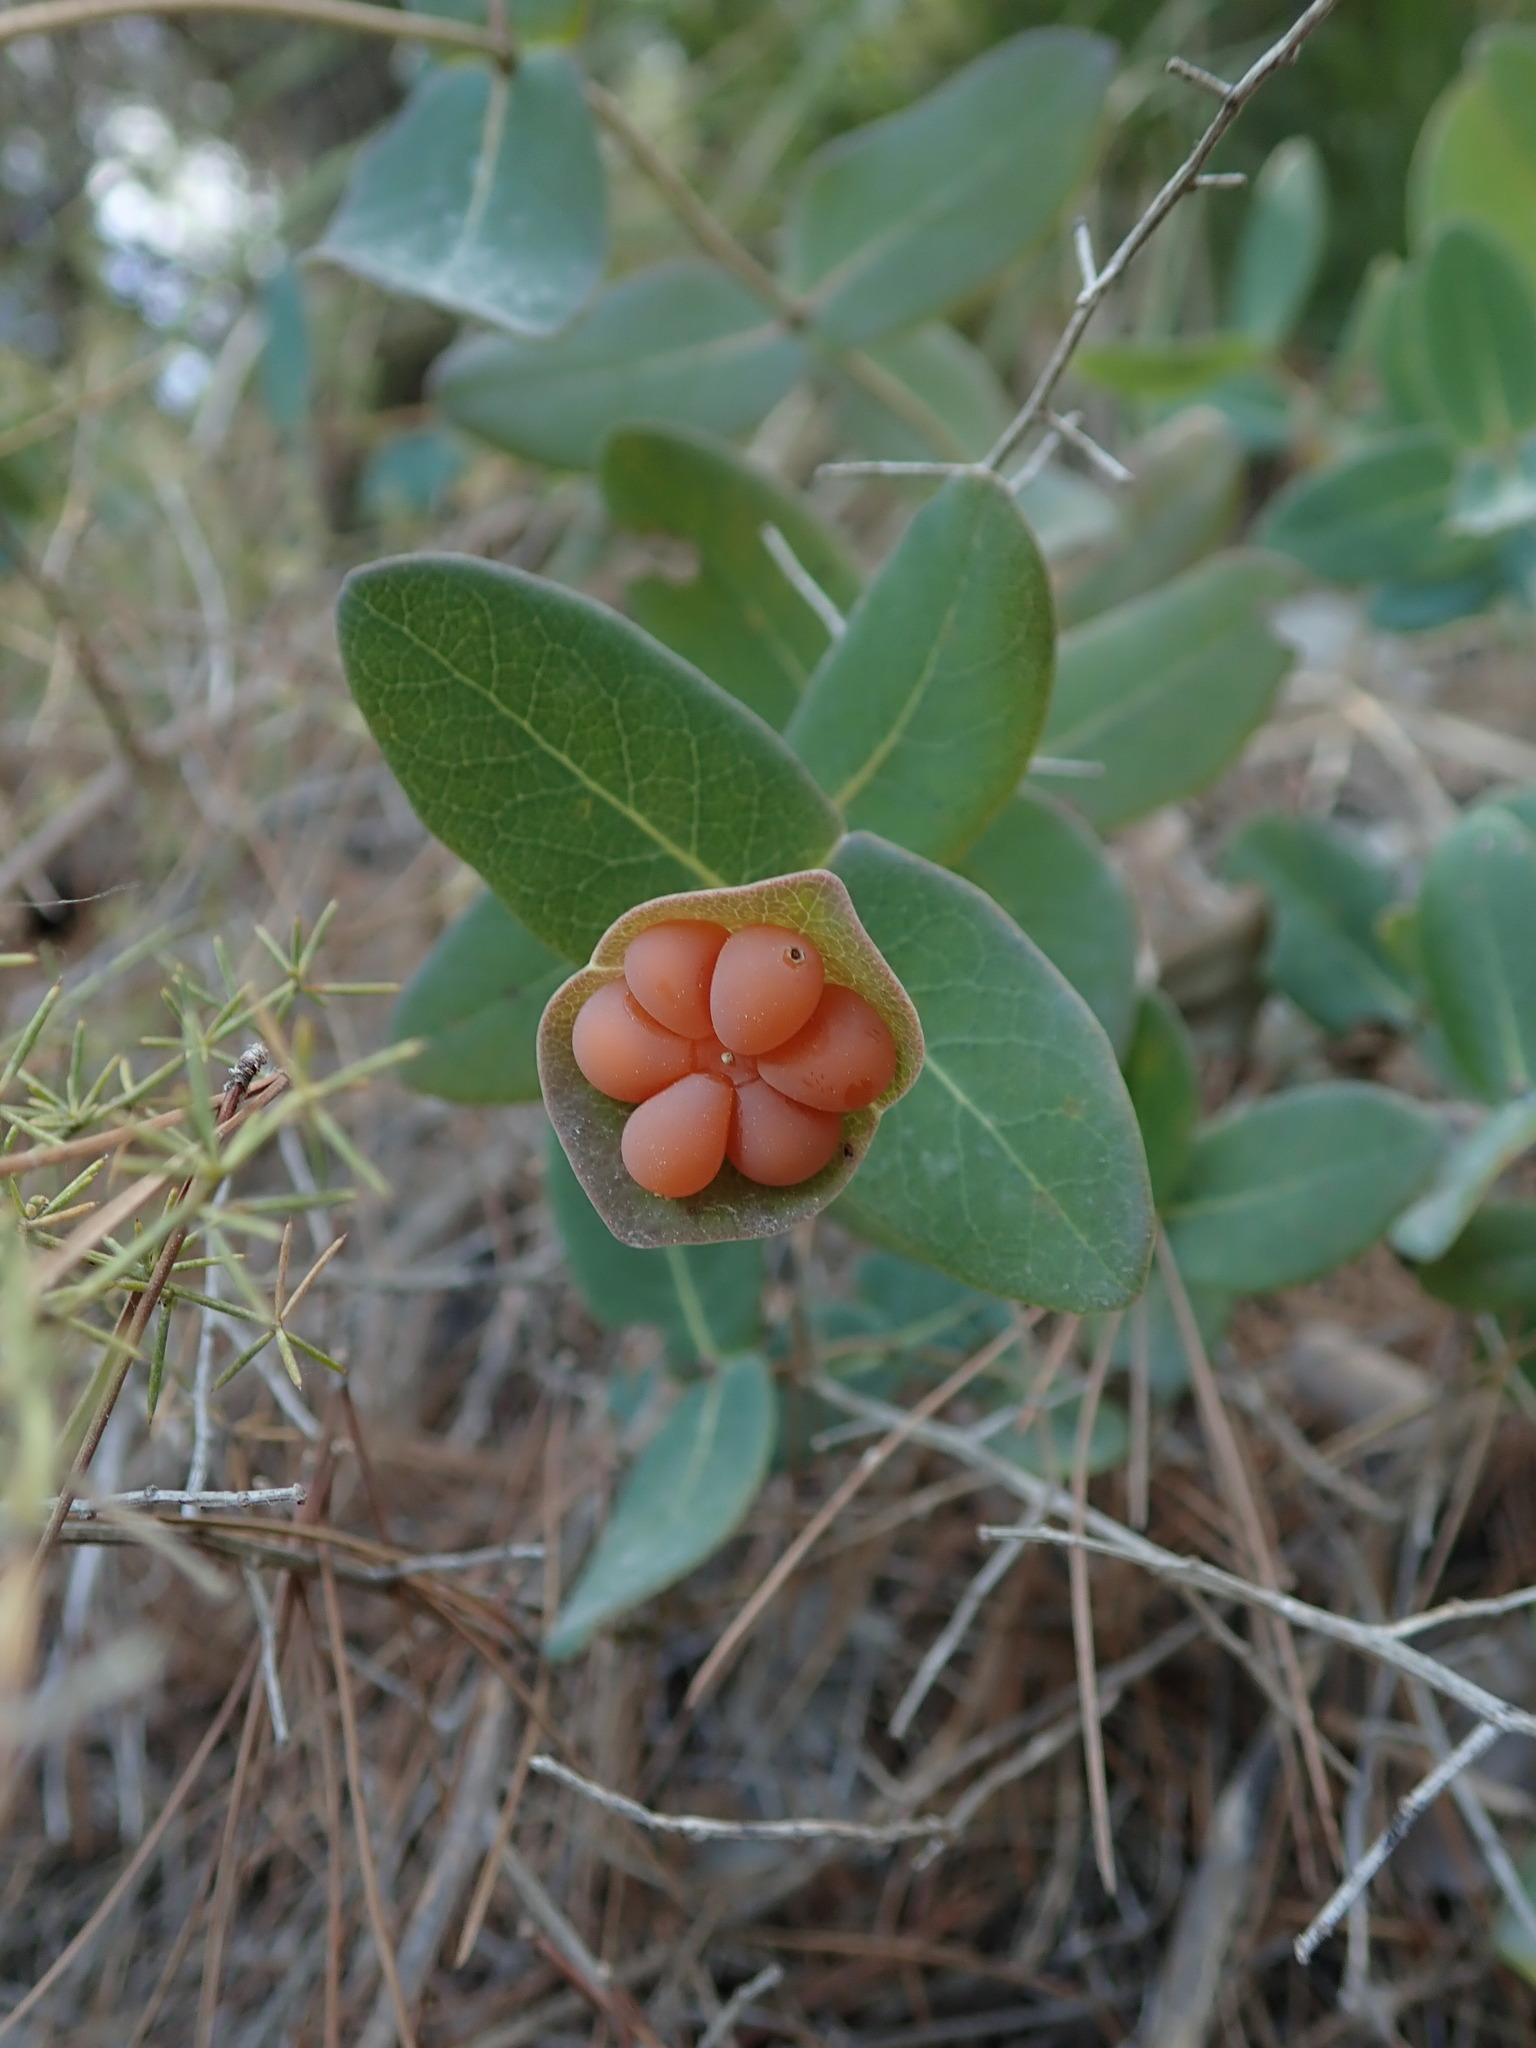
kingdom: Plantae
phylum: Tracheophyta
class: Magnoliopsida
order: Dipsacales
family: Caprifoliaceae
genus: Lonicera
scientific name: Lonicera implexa
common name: Minorca honeysuckle
